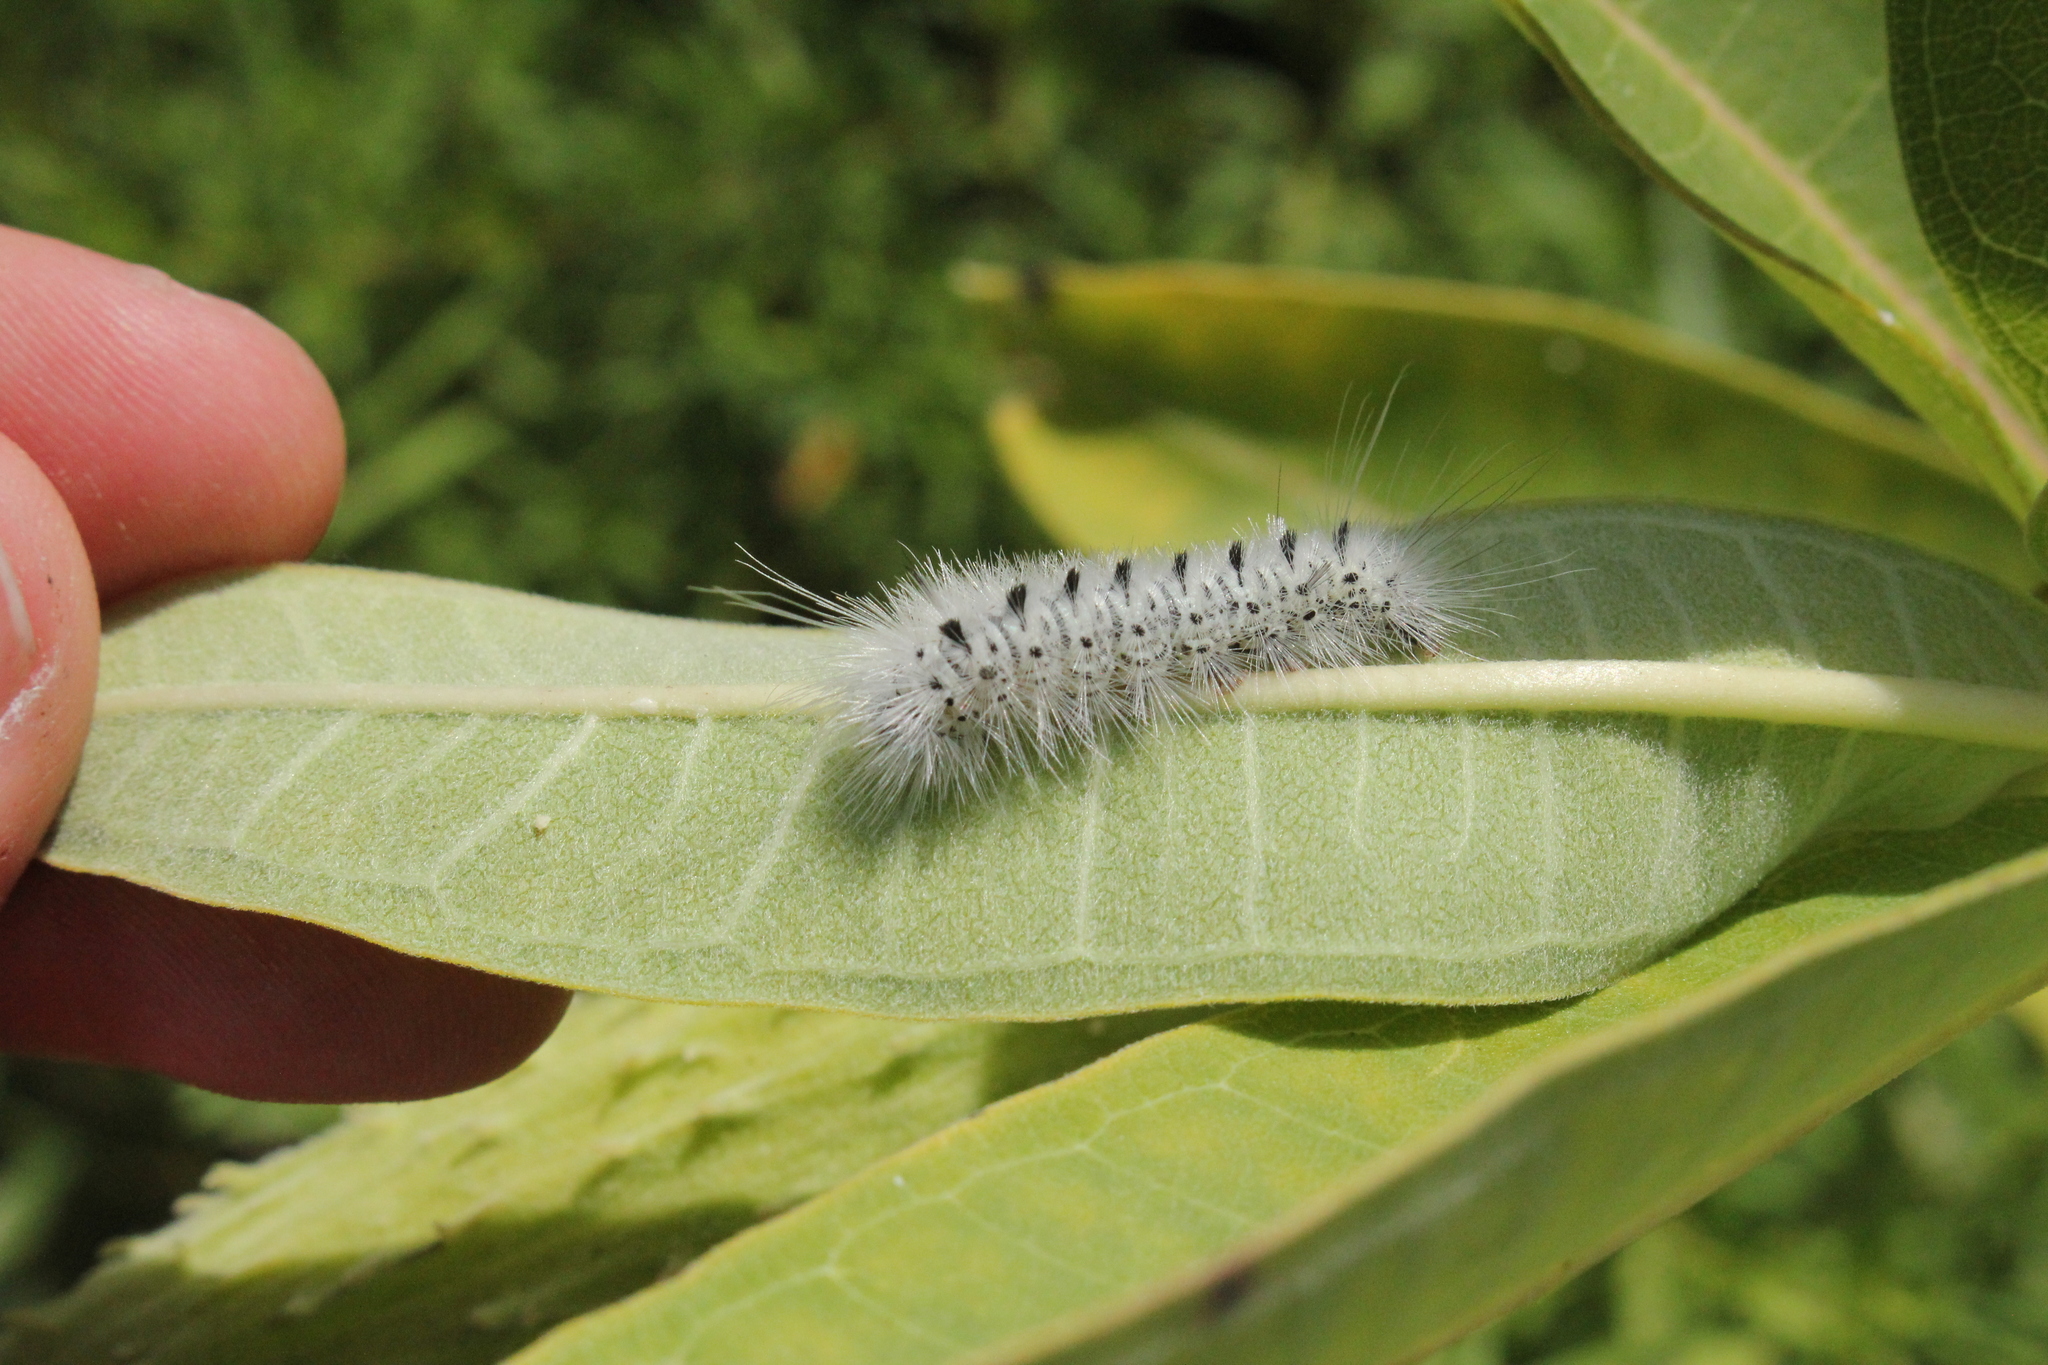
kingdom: Animalia
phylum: Arthropoda
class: Insecta
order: Lepidoptera
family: Erebidae
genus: Lophocampa
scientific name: Lophocampa caryae
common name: Hickory tussock moth
